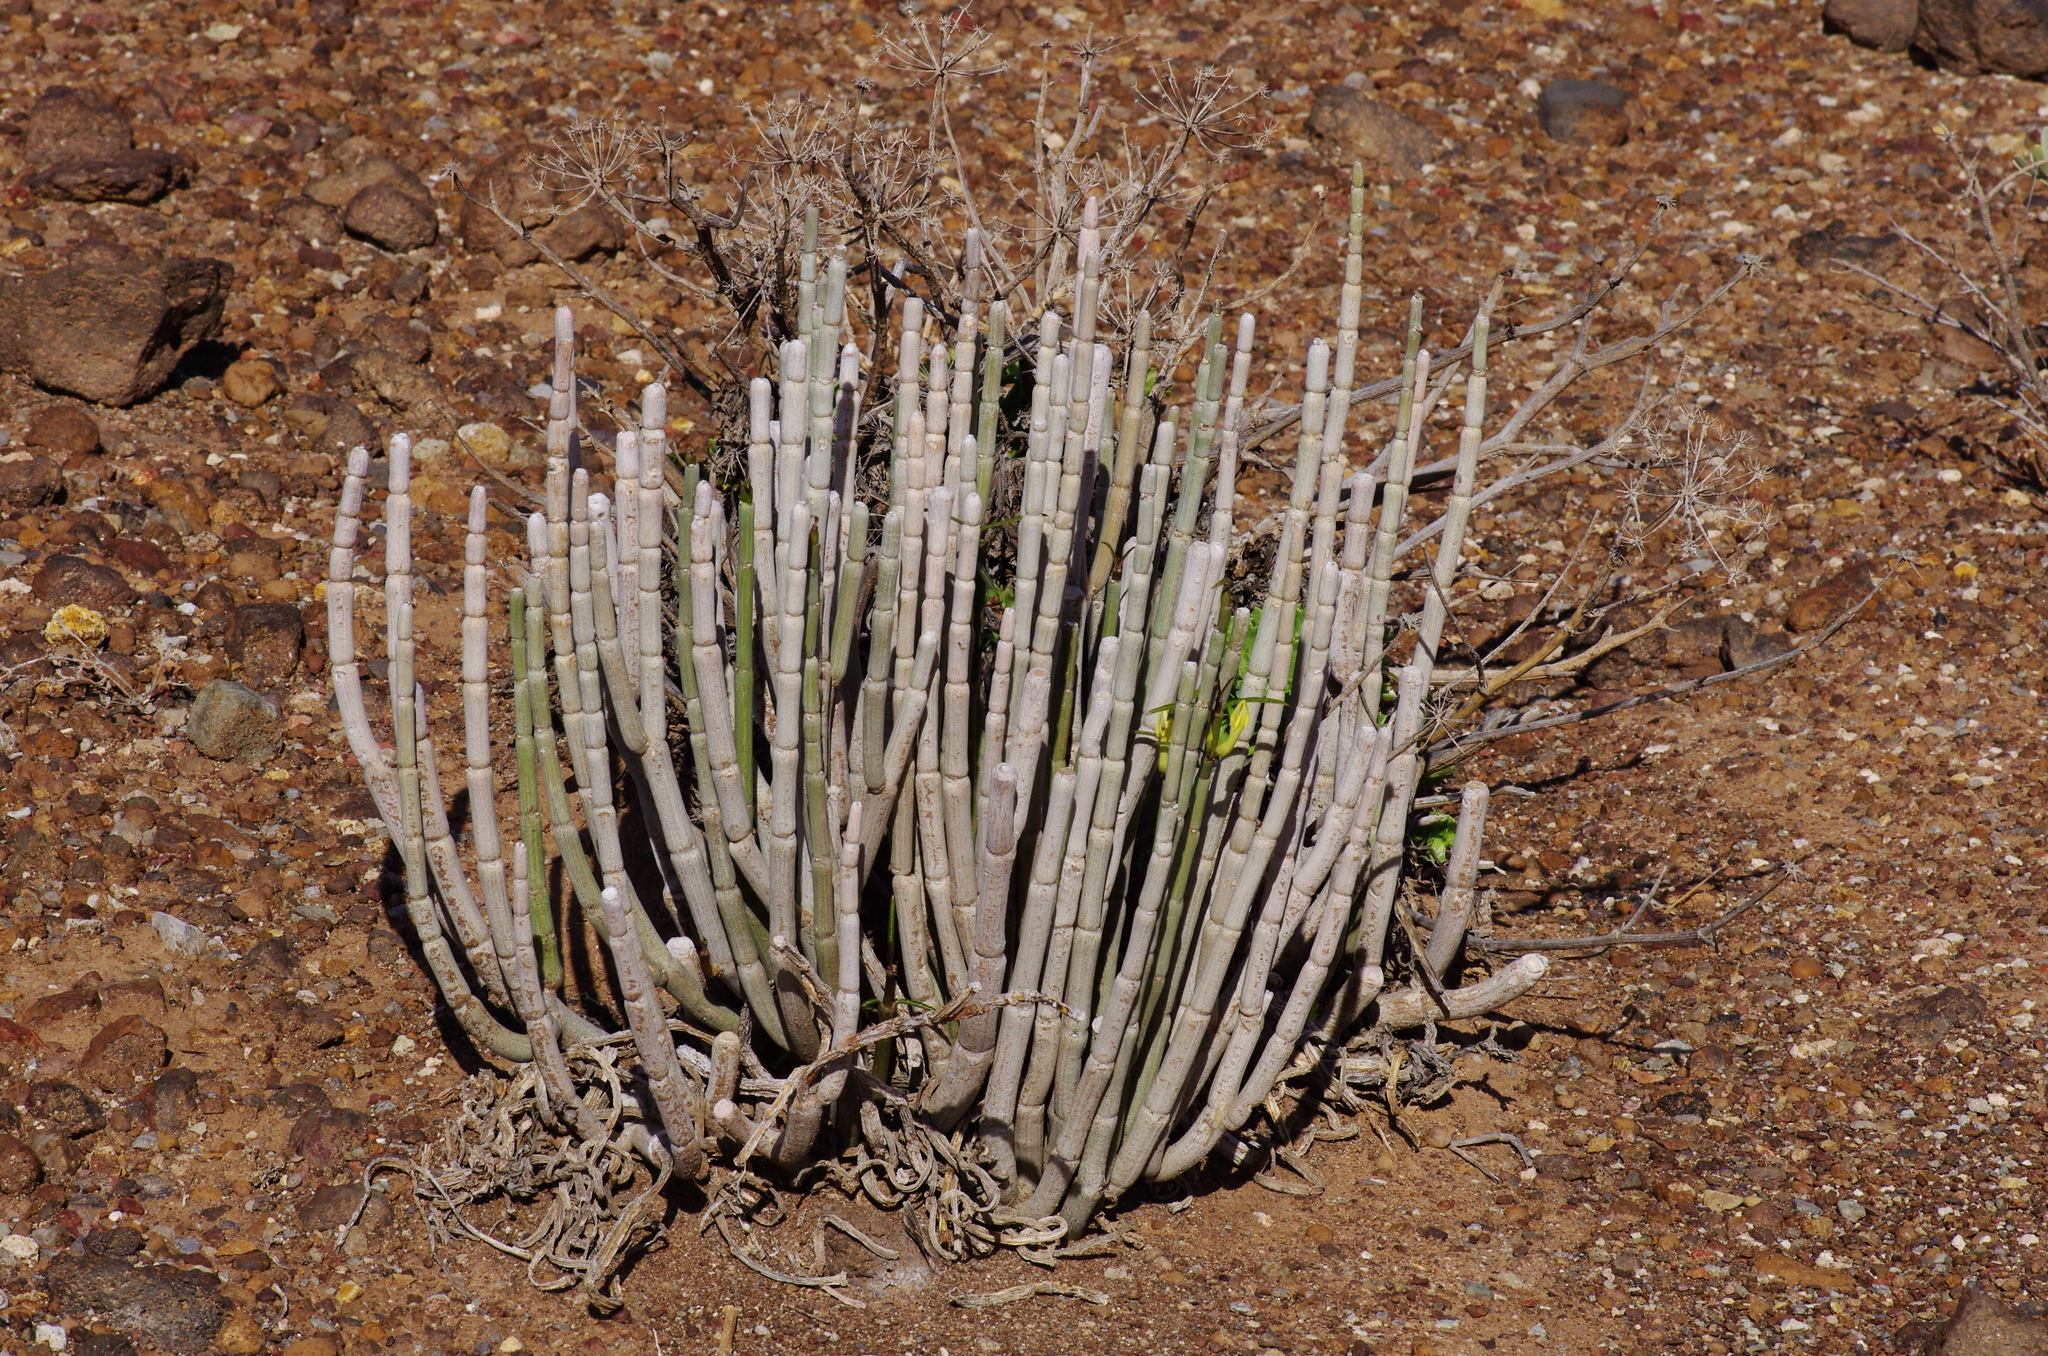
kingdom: Plantae
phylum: Tracheophyta
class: Magnoliopsida
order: Gentianales
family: Apocynaceae
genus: Ceropegia
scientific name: Ceropegia dichotoma
